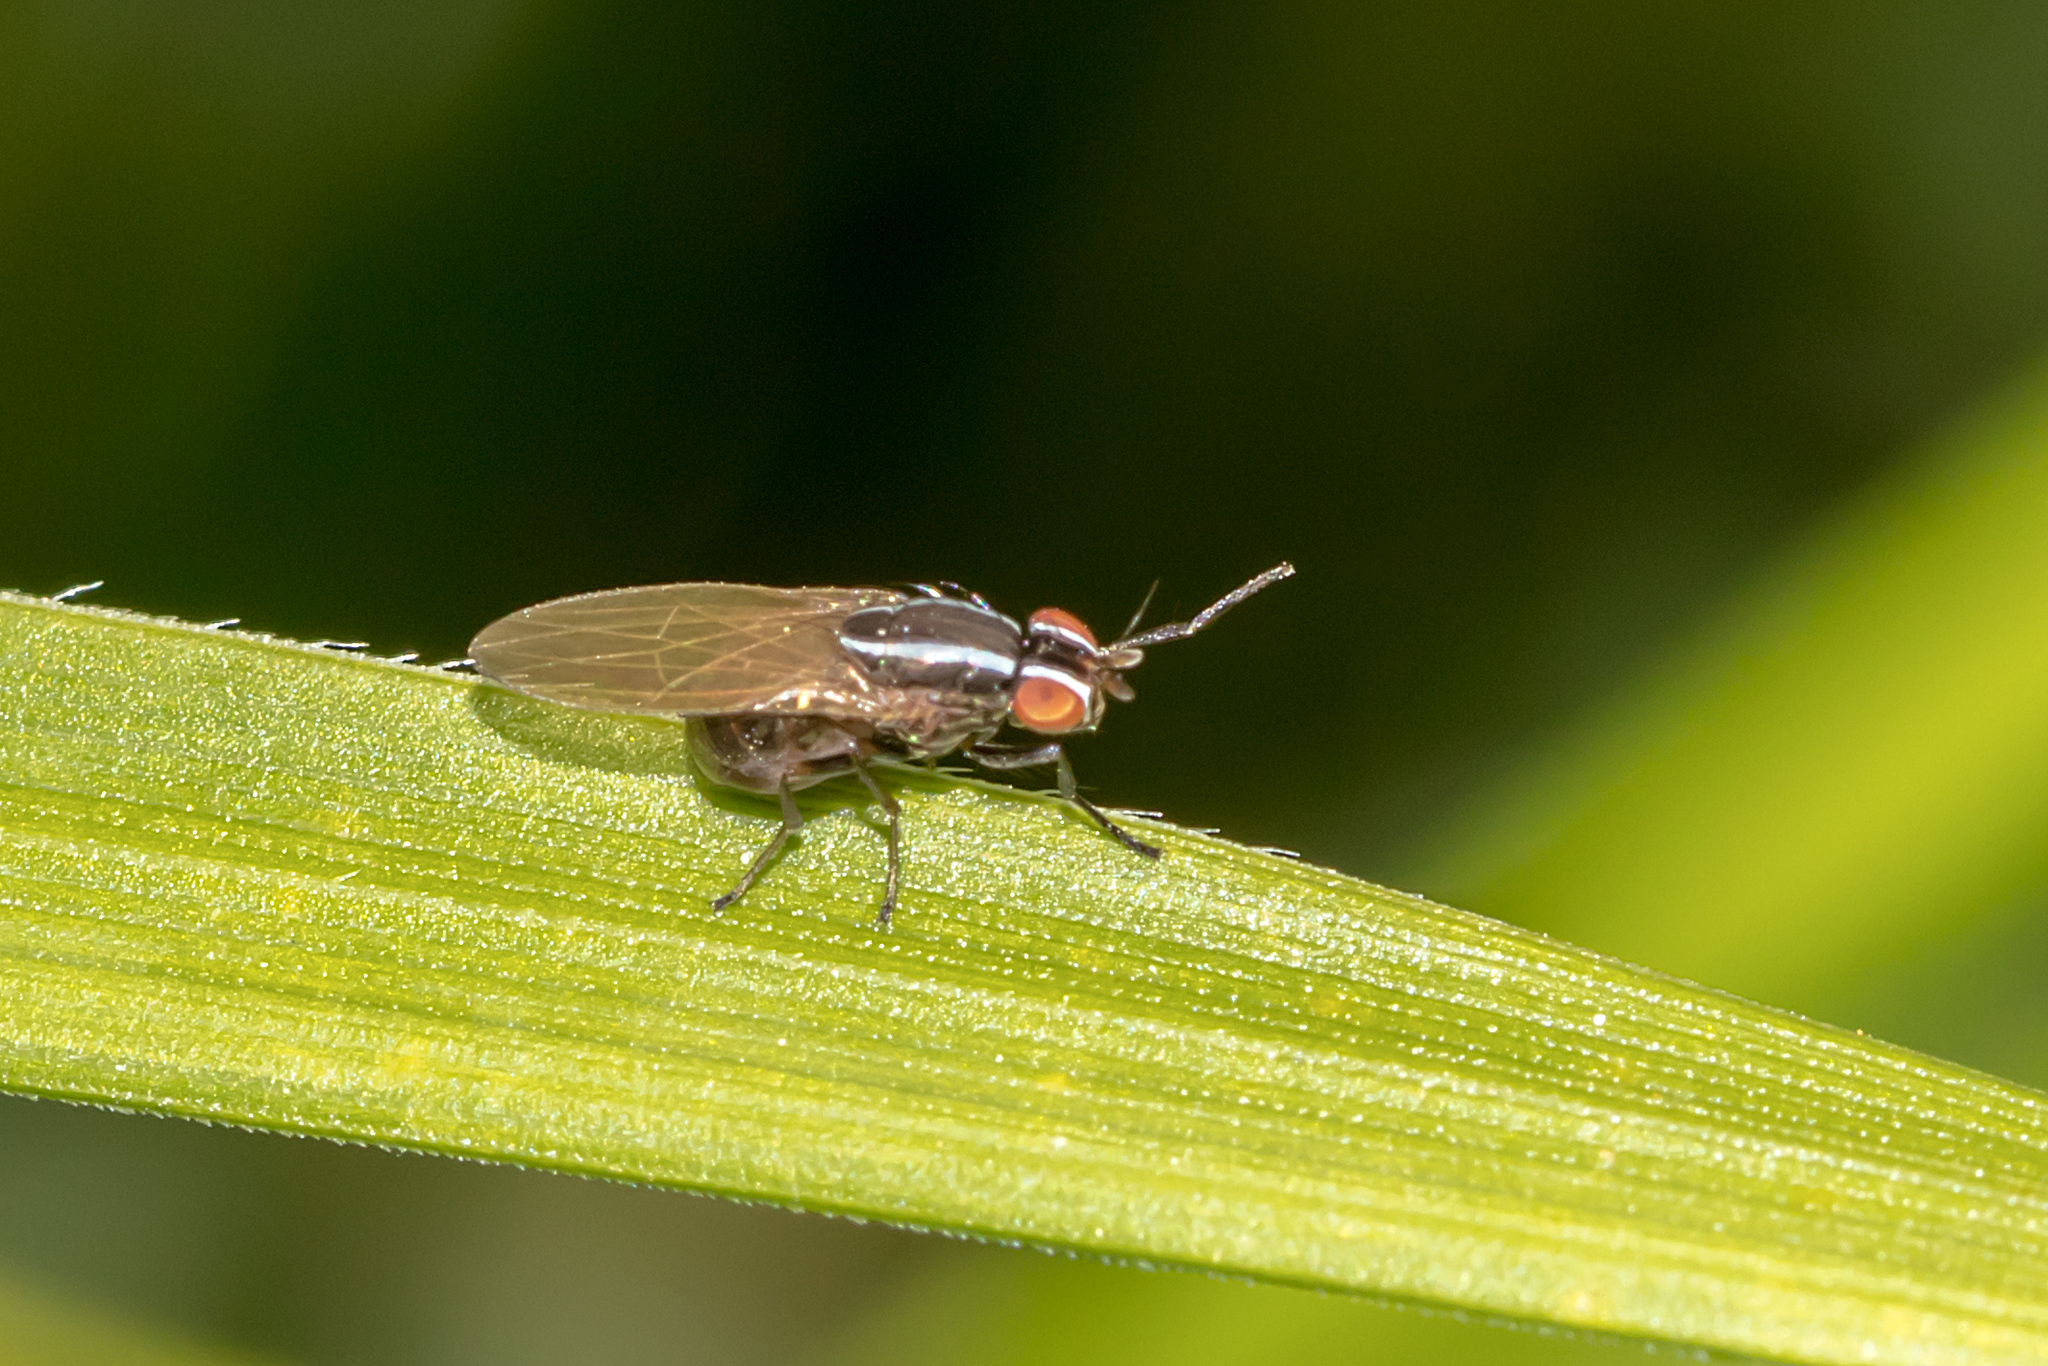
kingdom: Animalia
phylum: Arthropoda
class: Insecta
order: Diptera
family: Lauxaniidae
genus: Poecilohetaerus
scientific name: Poecilohetaerus aquilus
